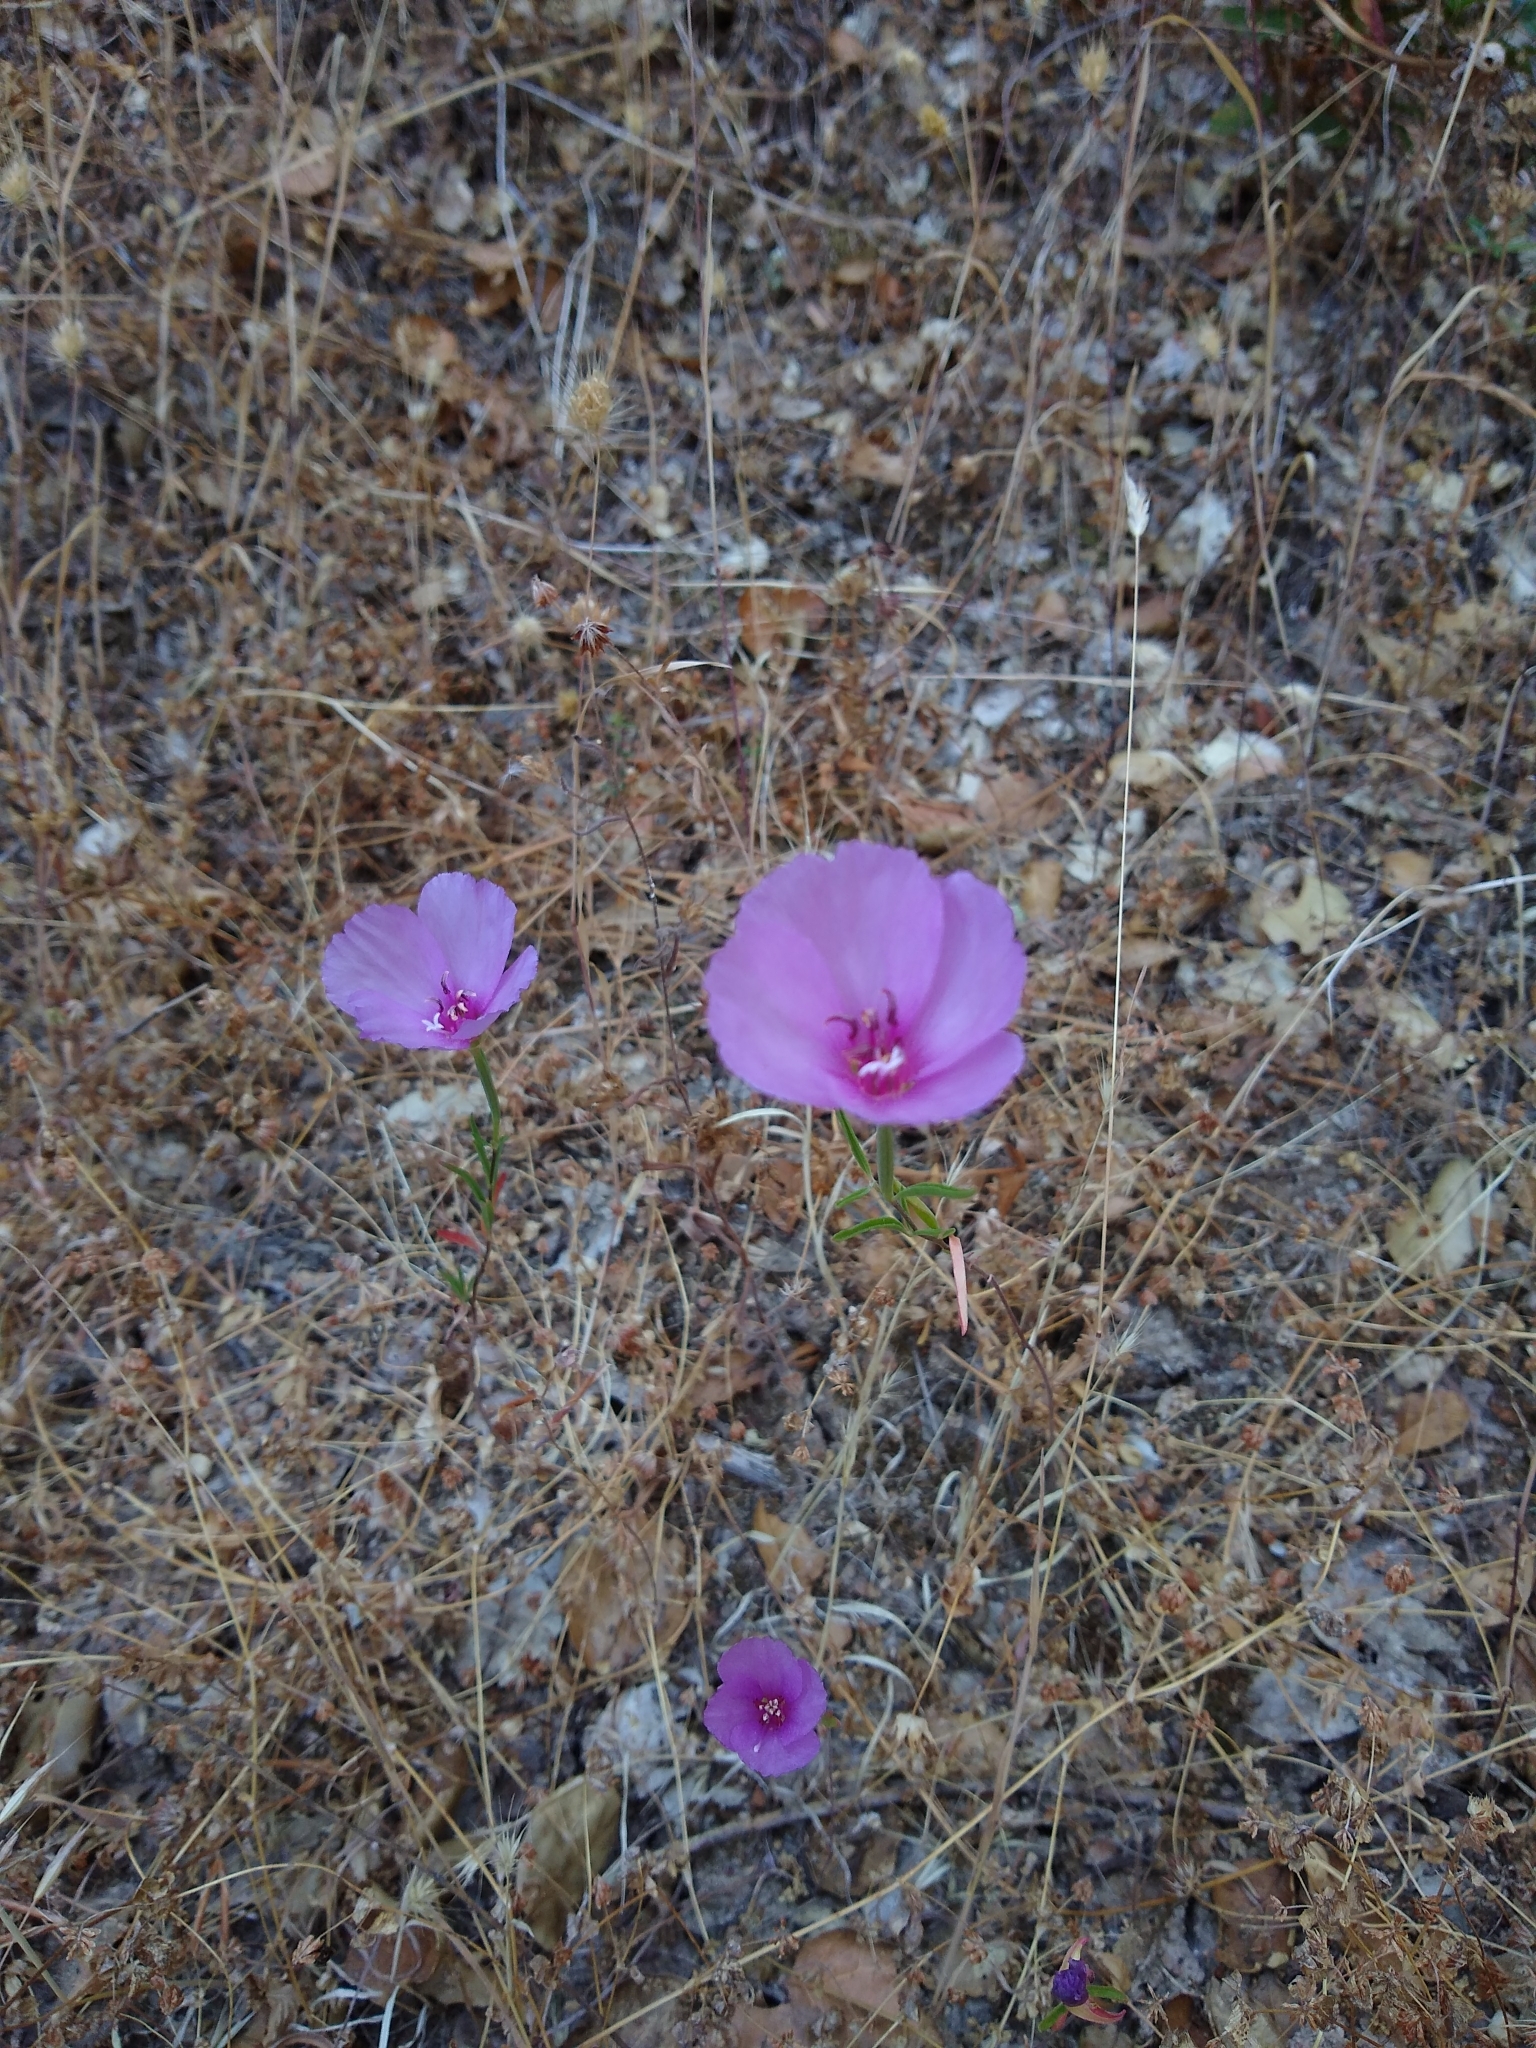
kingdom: Plantae
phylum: Tracheophyta
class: Magnoliopsida
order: Myrtales
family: Onagraceae
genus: Clarkia
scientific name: Clarkia rubicunda
